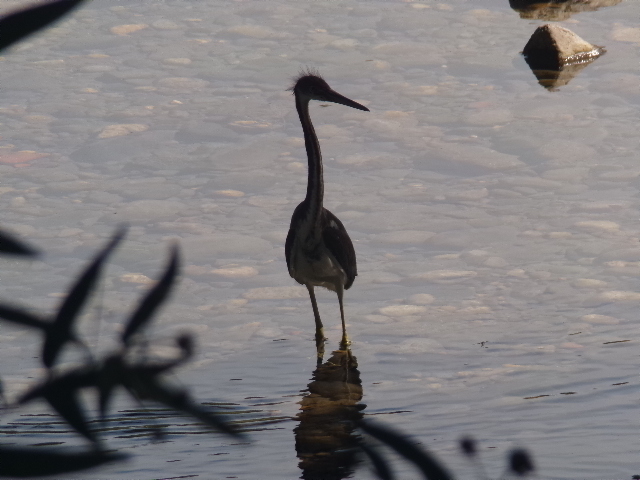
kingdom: Animalia
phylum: Chordata
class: Aves
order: Pelecaniformes
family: Ardeidae
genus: Egretta
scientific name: Egretta tricolor
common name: Tricolored heron
